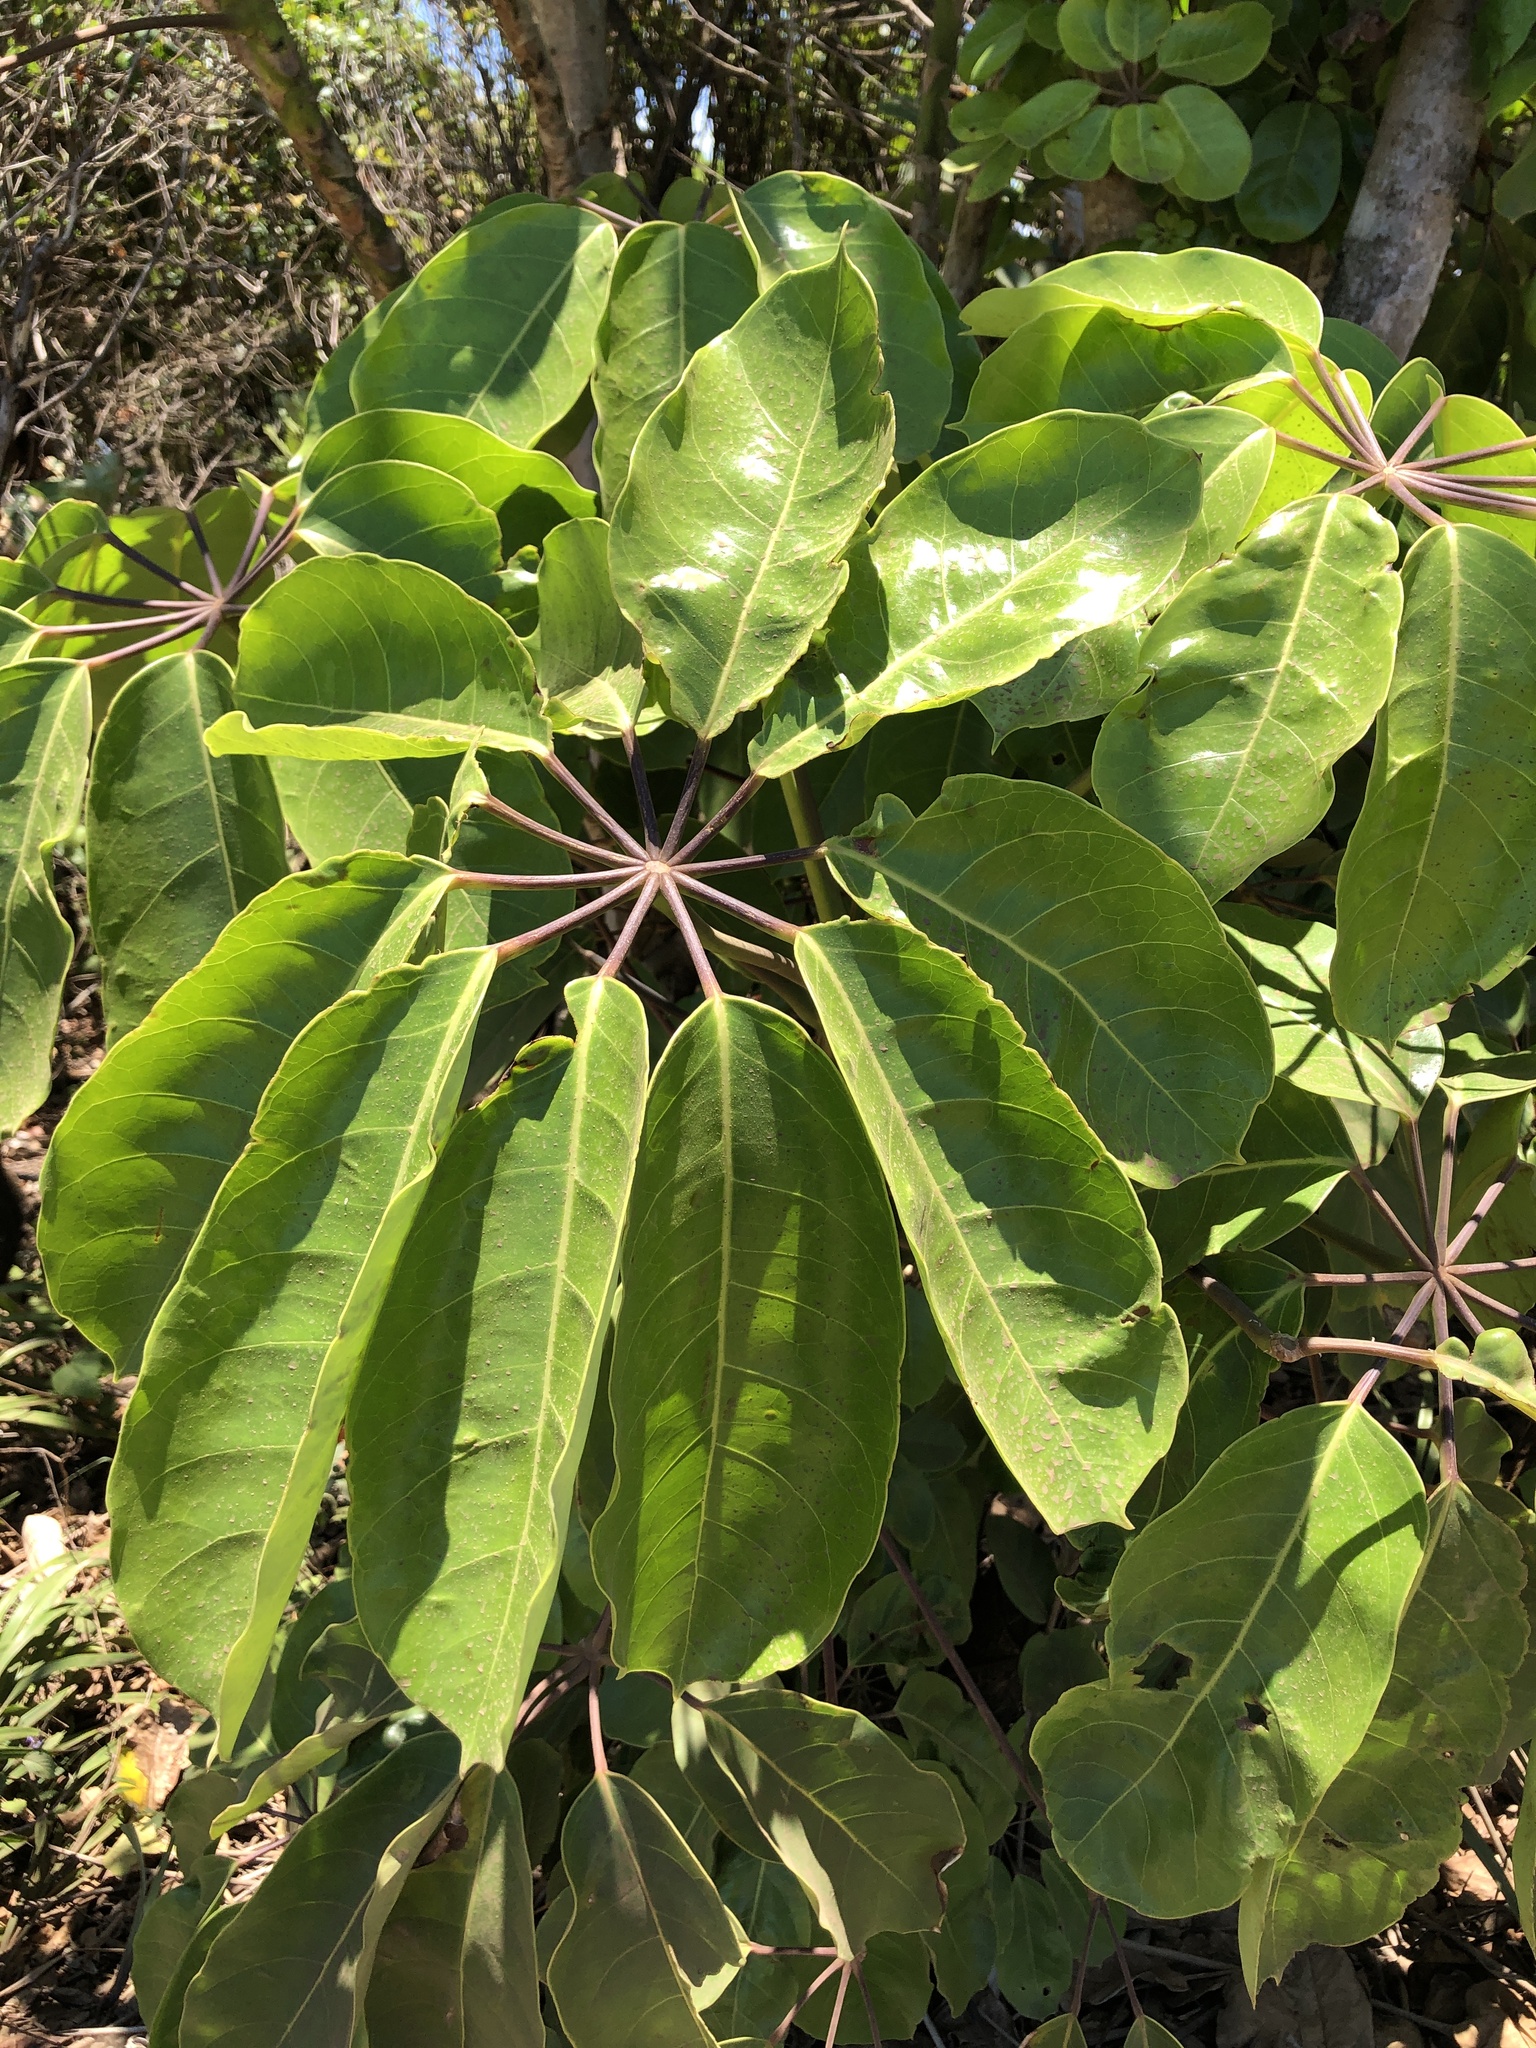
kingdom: Plantae
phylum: Tracheophyta
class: Magnoliopsida
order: Apiales
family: Araliaceae
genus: Heptapleurum
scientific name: Heptapleurum actinophyllum
